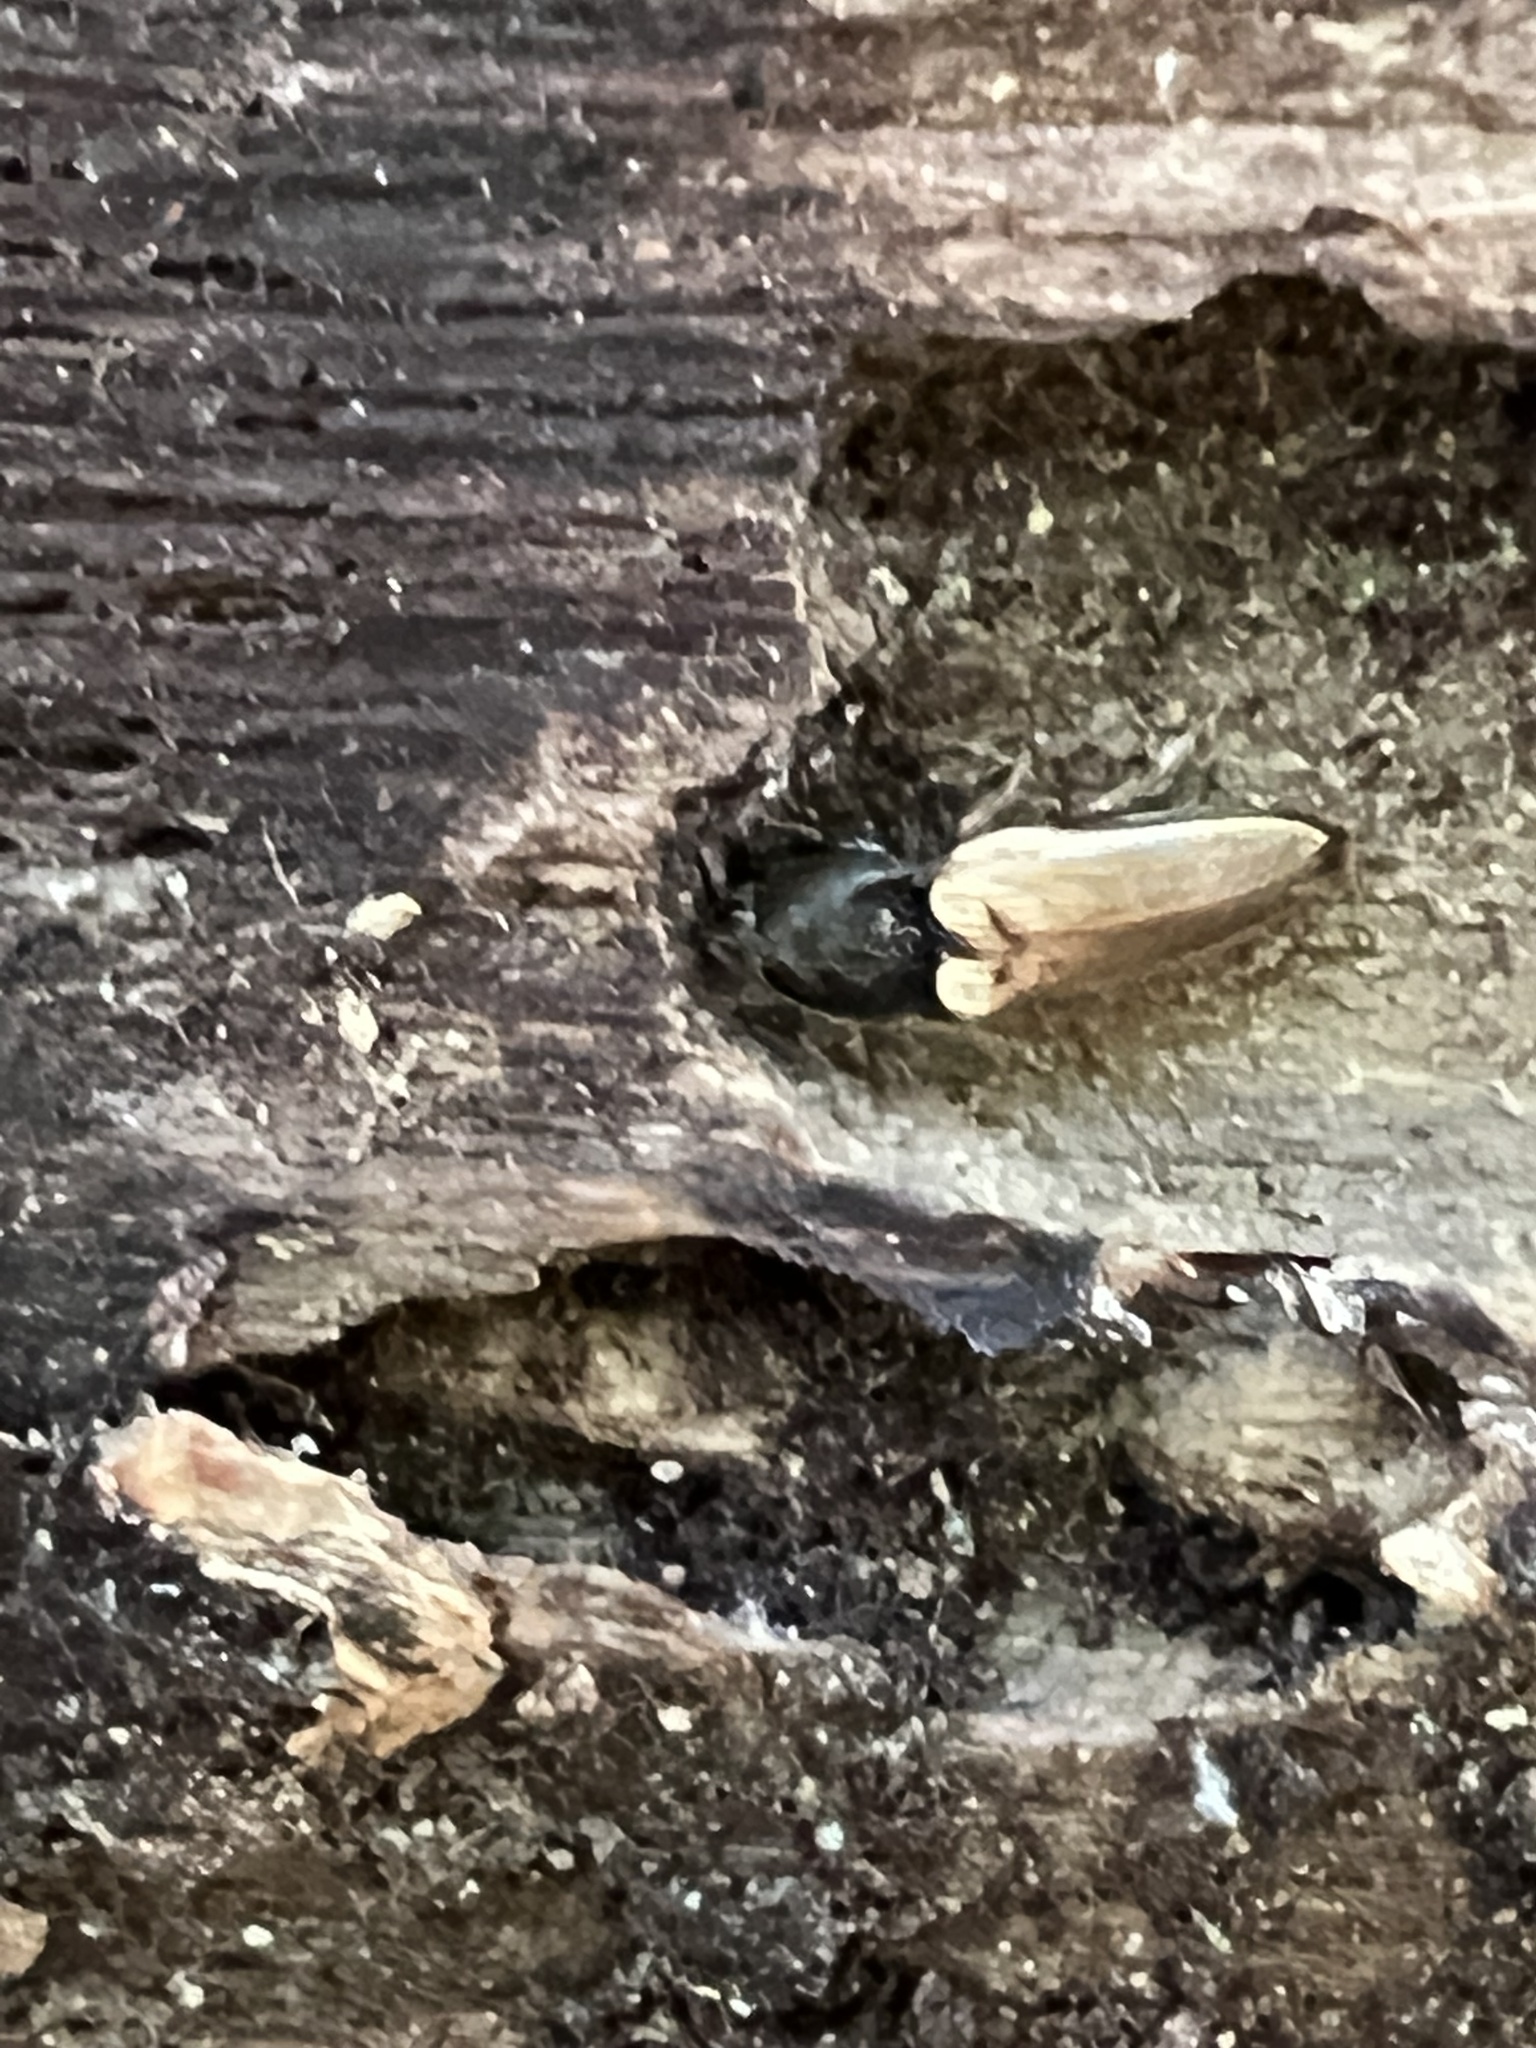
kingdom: Animalia
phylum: Arthropoda
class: Insecta
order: Coleoptera
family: Elateridae
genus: Ampedus
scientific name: Ampedus nigricollis
